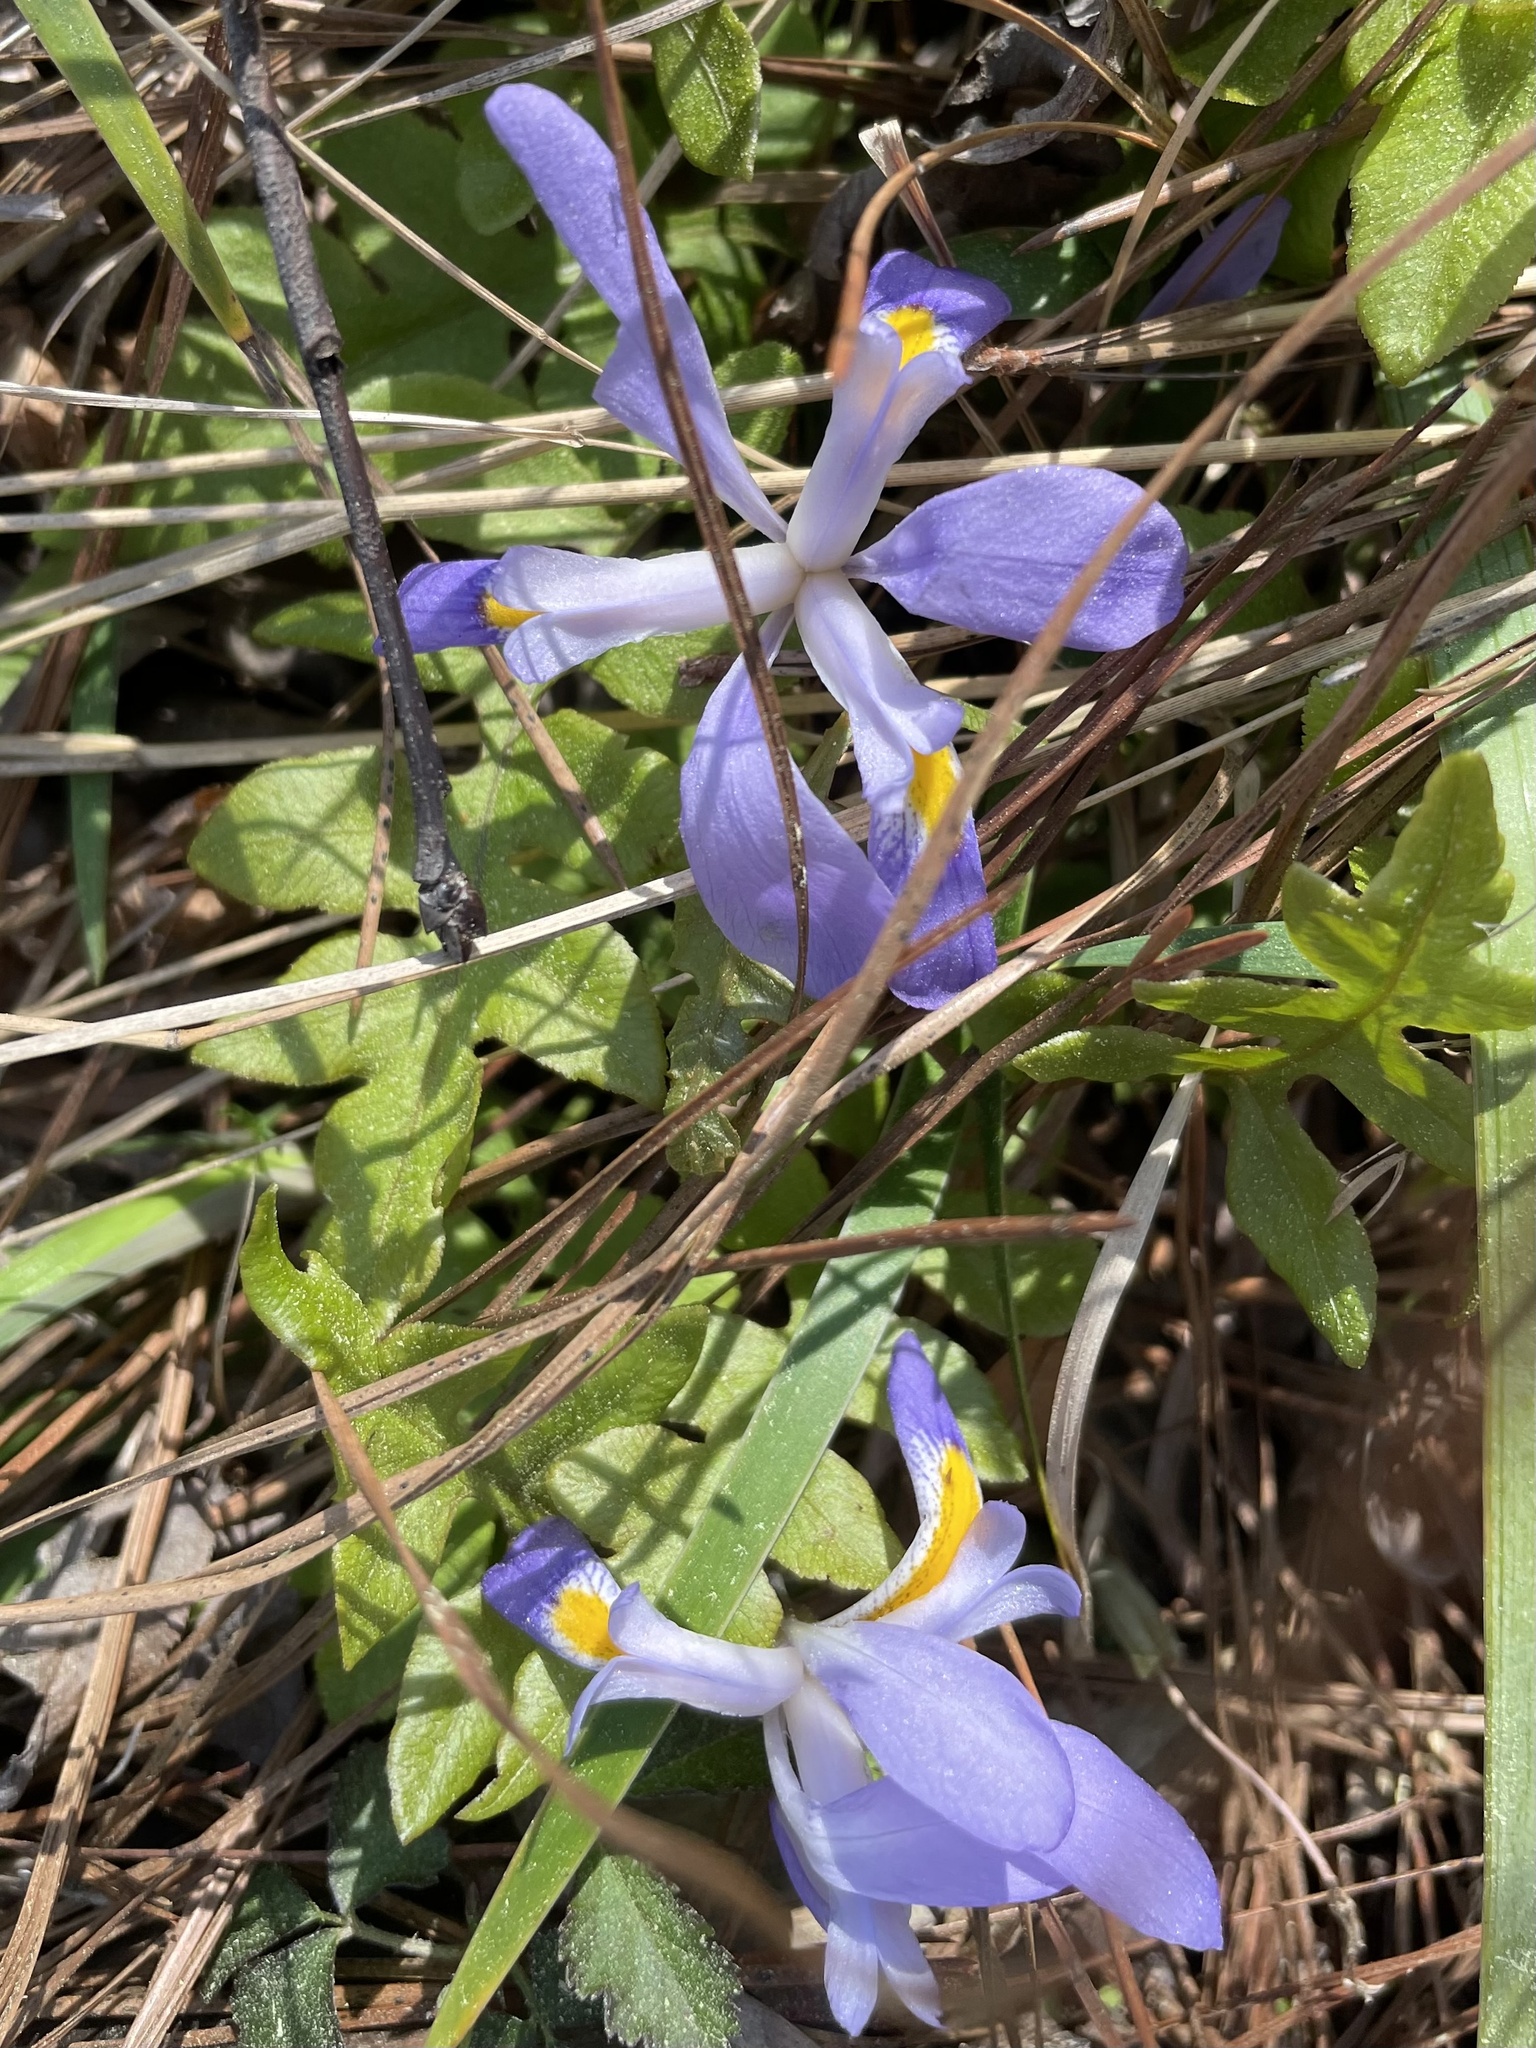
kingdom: Plantae
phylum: Tracheophyta
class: Liliopsida
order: Asparagales
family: Iridaceae
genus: Iris
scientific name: Iris verna
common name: Dwarf iris
